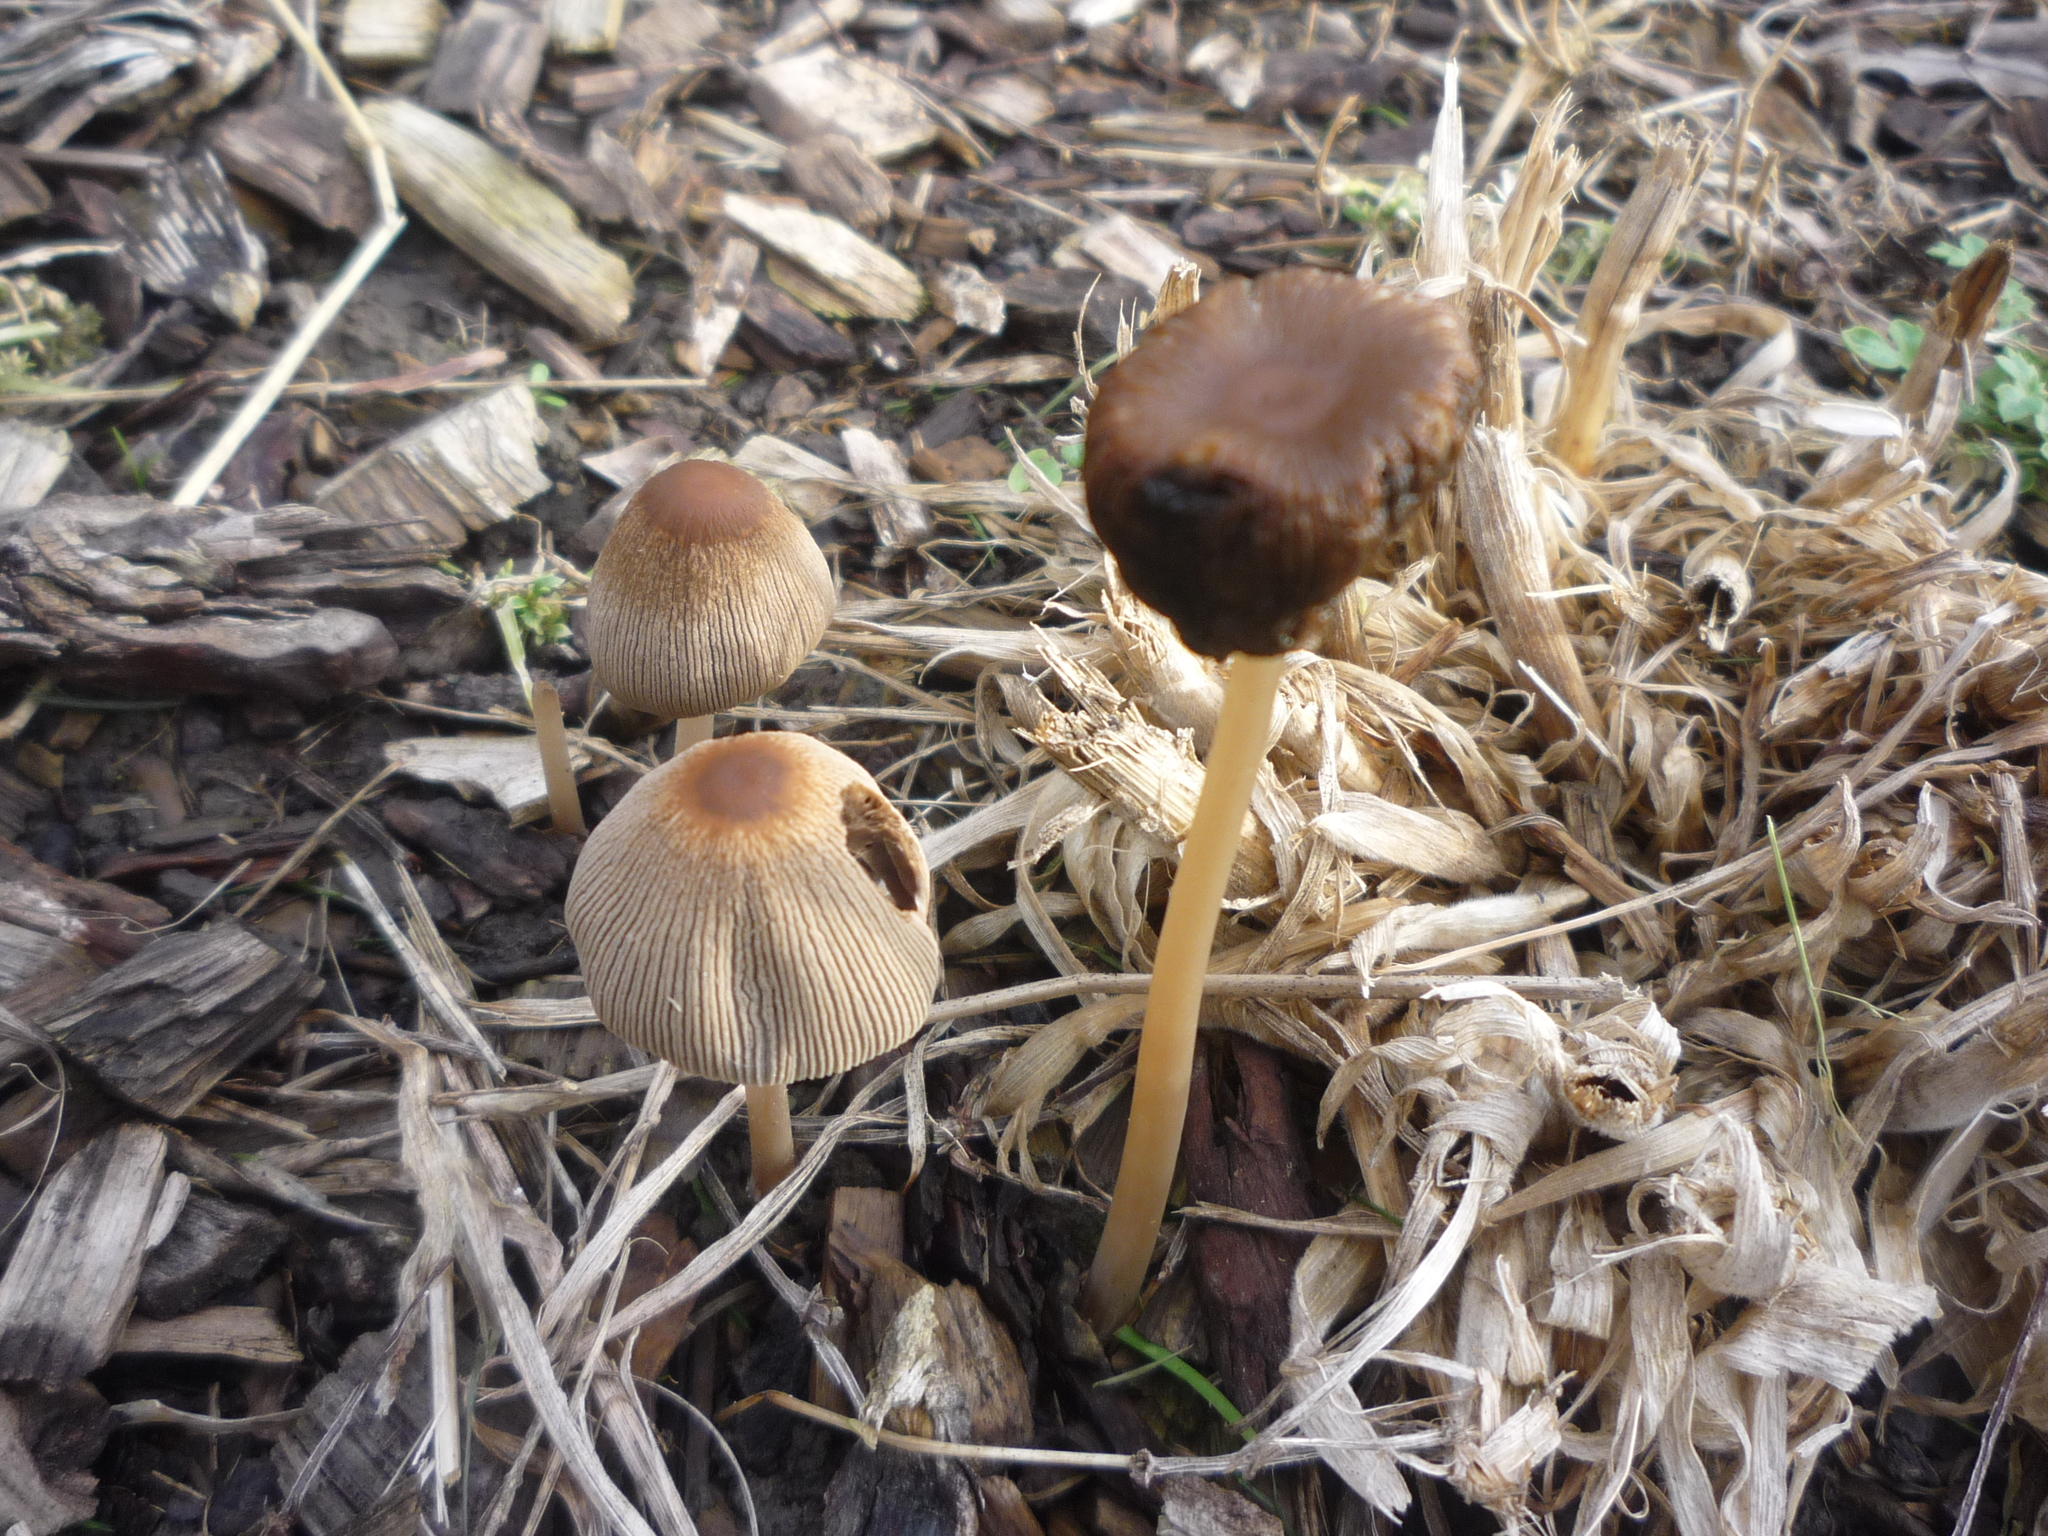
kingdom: Fungi
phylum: Basidiomycota
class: Agaricomycetes
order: Agaricales
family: Psathyrellaceae
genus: Parasola
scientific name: Parasola auricoma
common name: Goldenhaired inkcap
